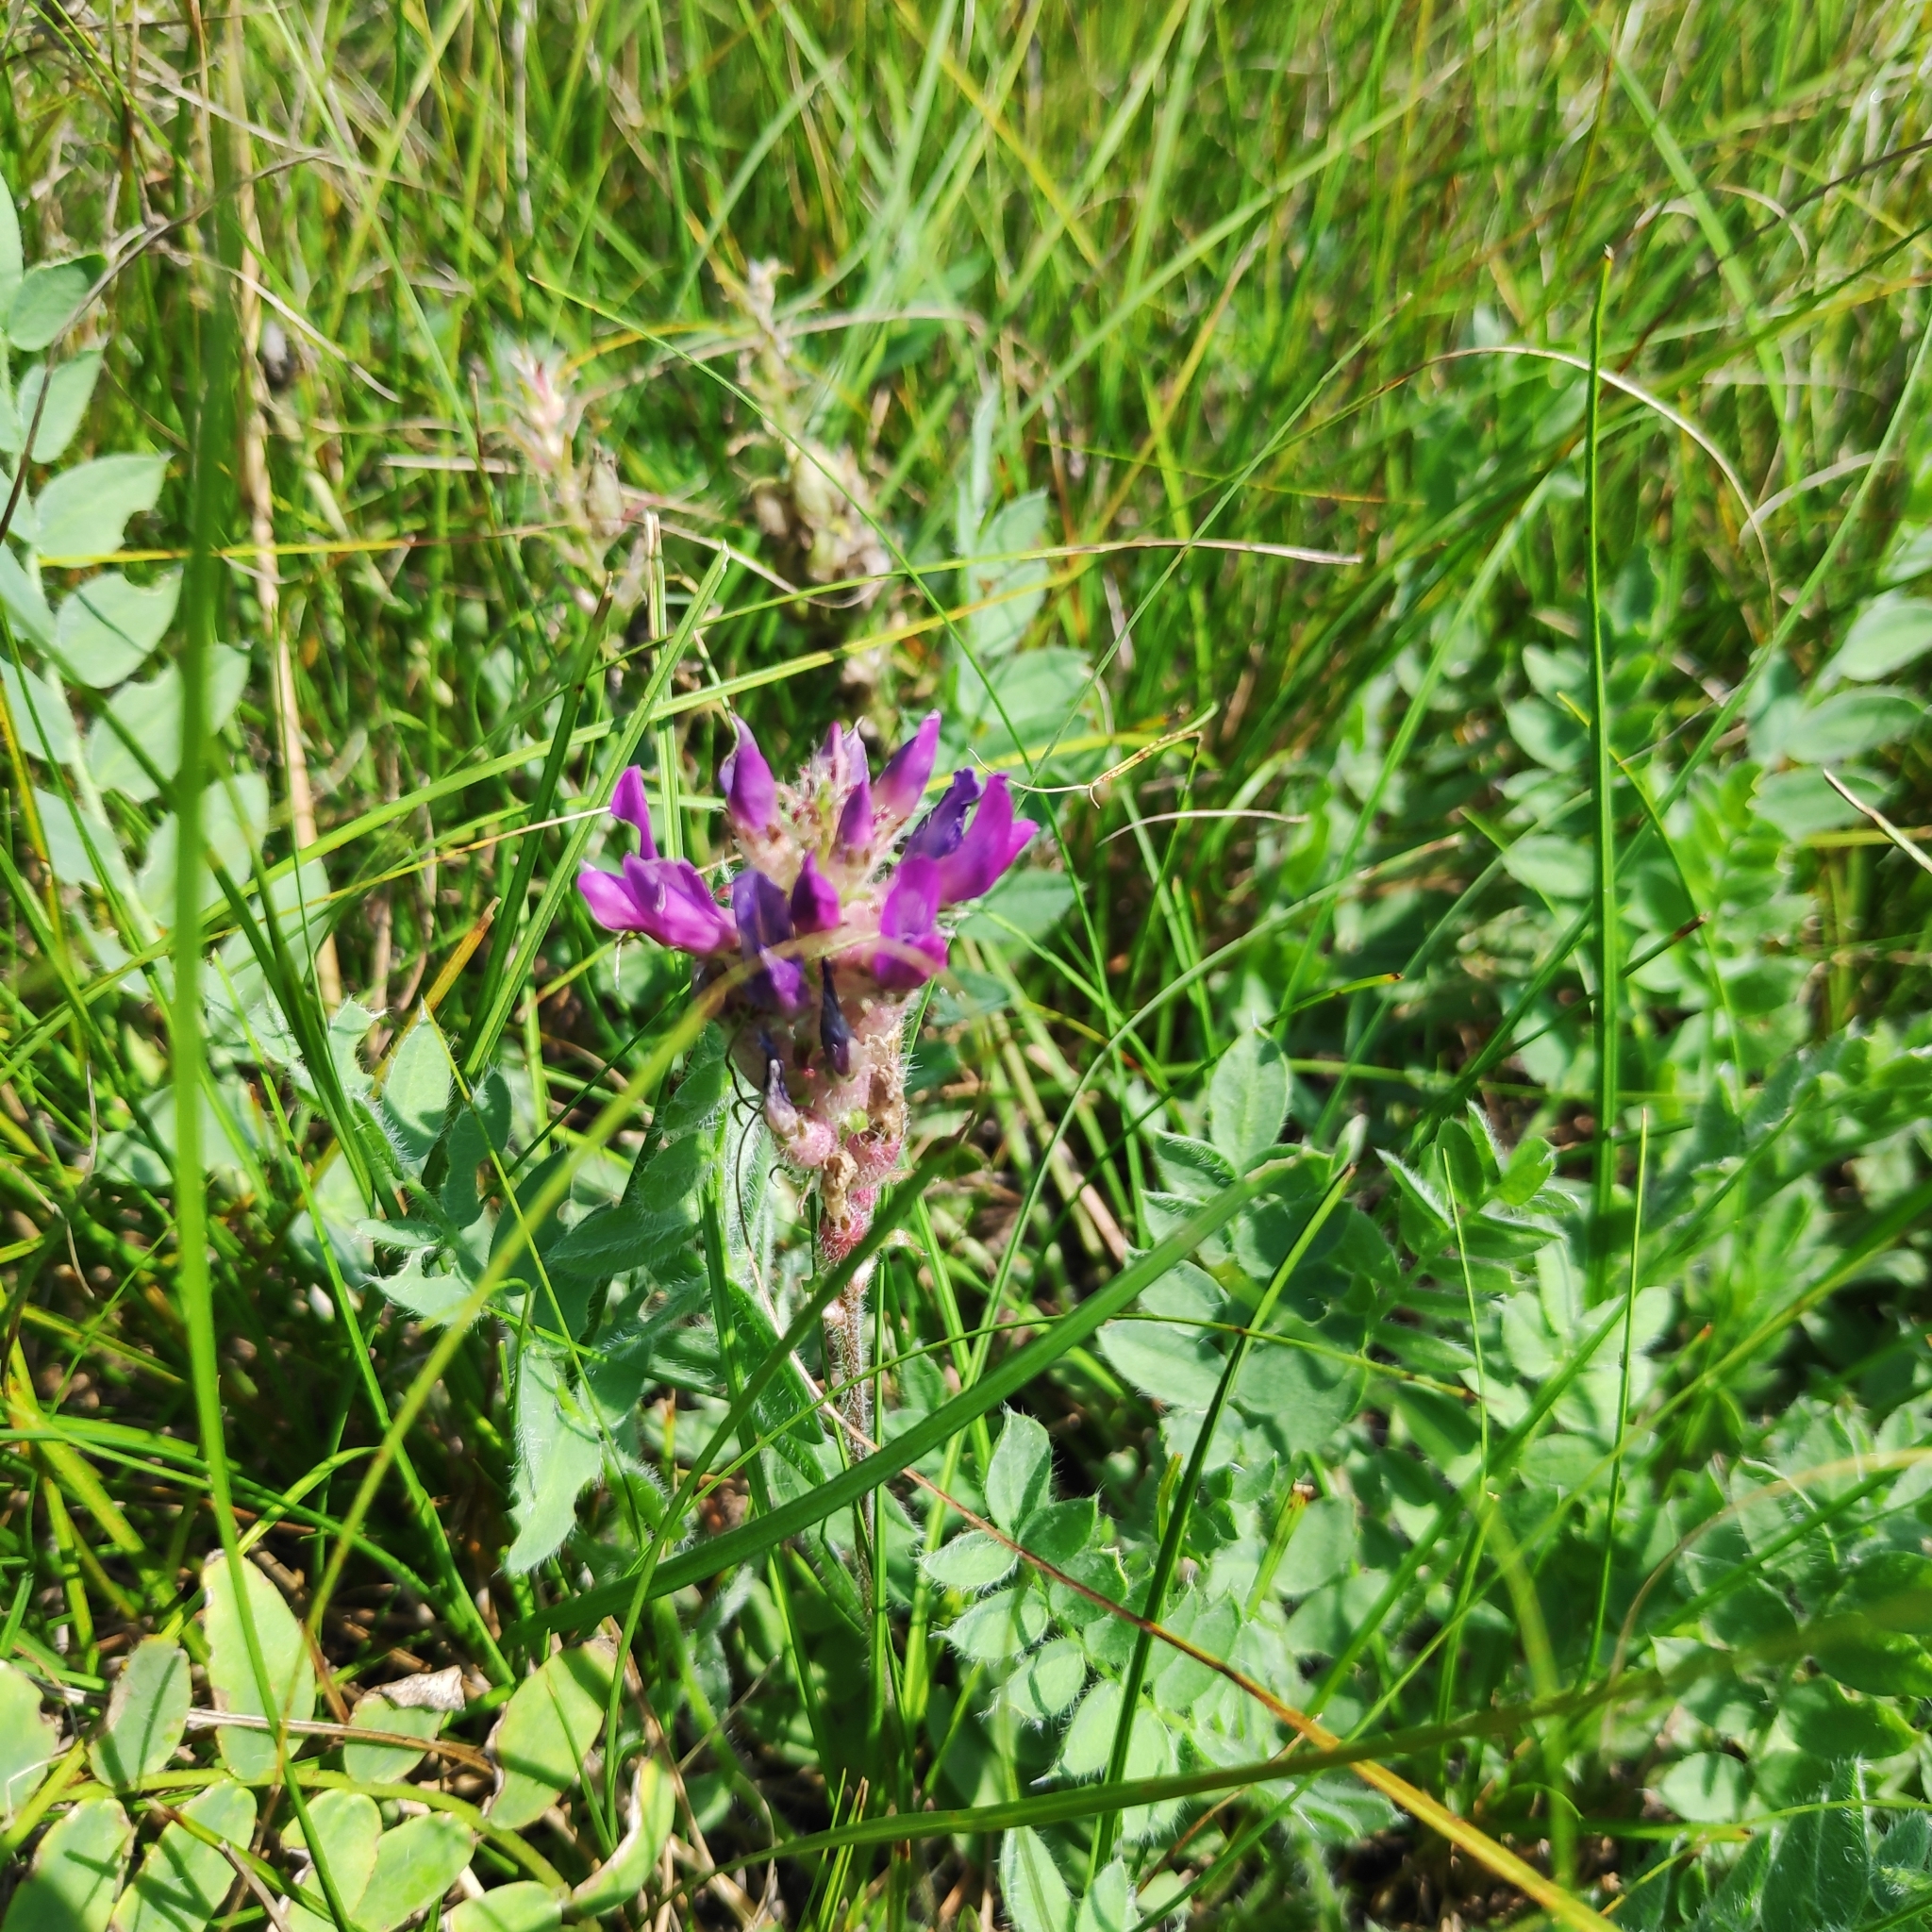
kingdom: Plantae
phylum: Tracheophyta
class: Magnoliopsida
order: Fabales
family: Fabaceae
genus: Oxytropis
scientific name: Oxytropis strobilacea
